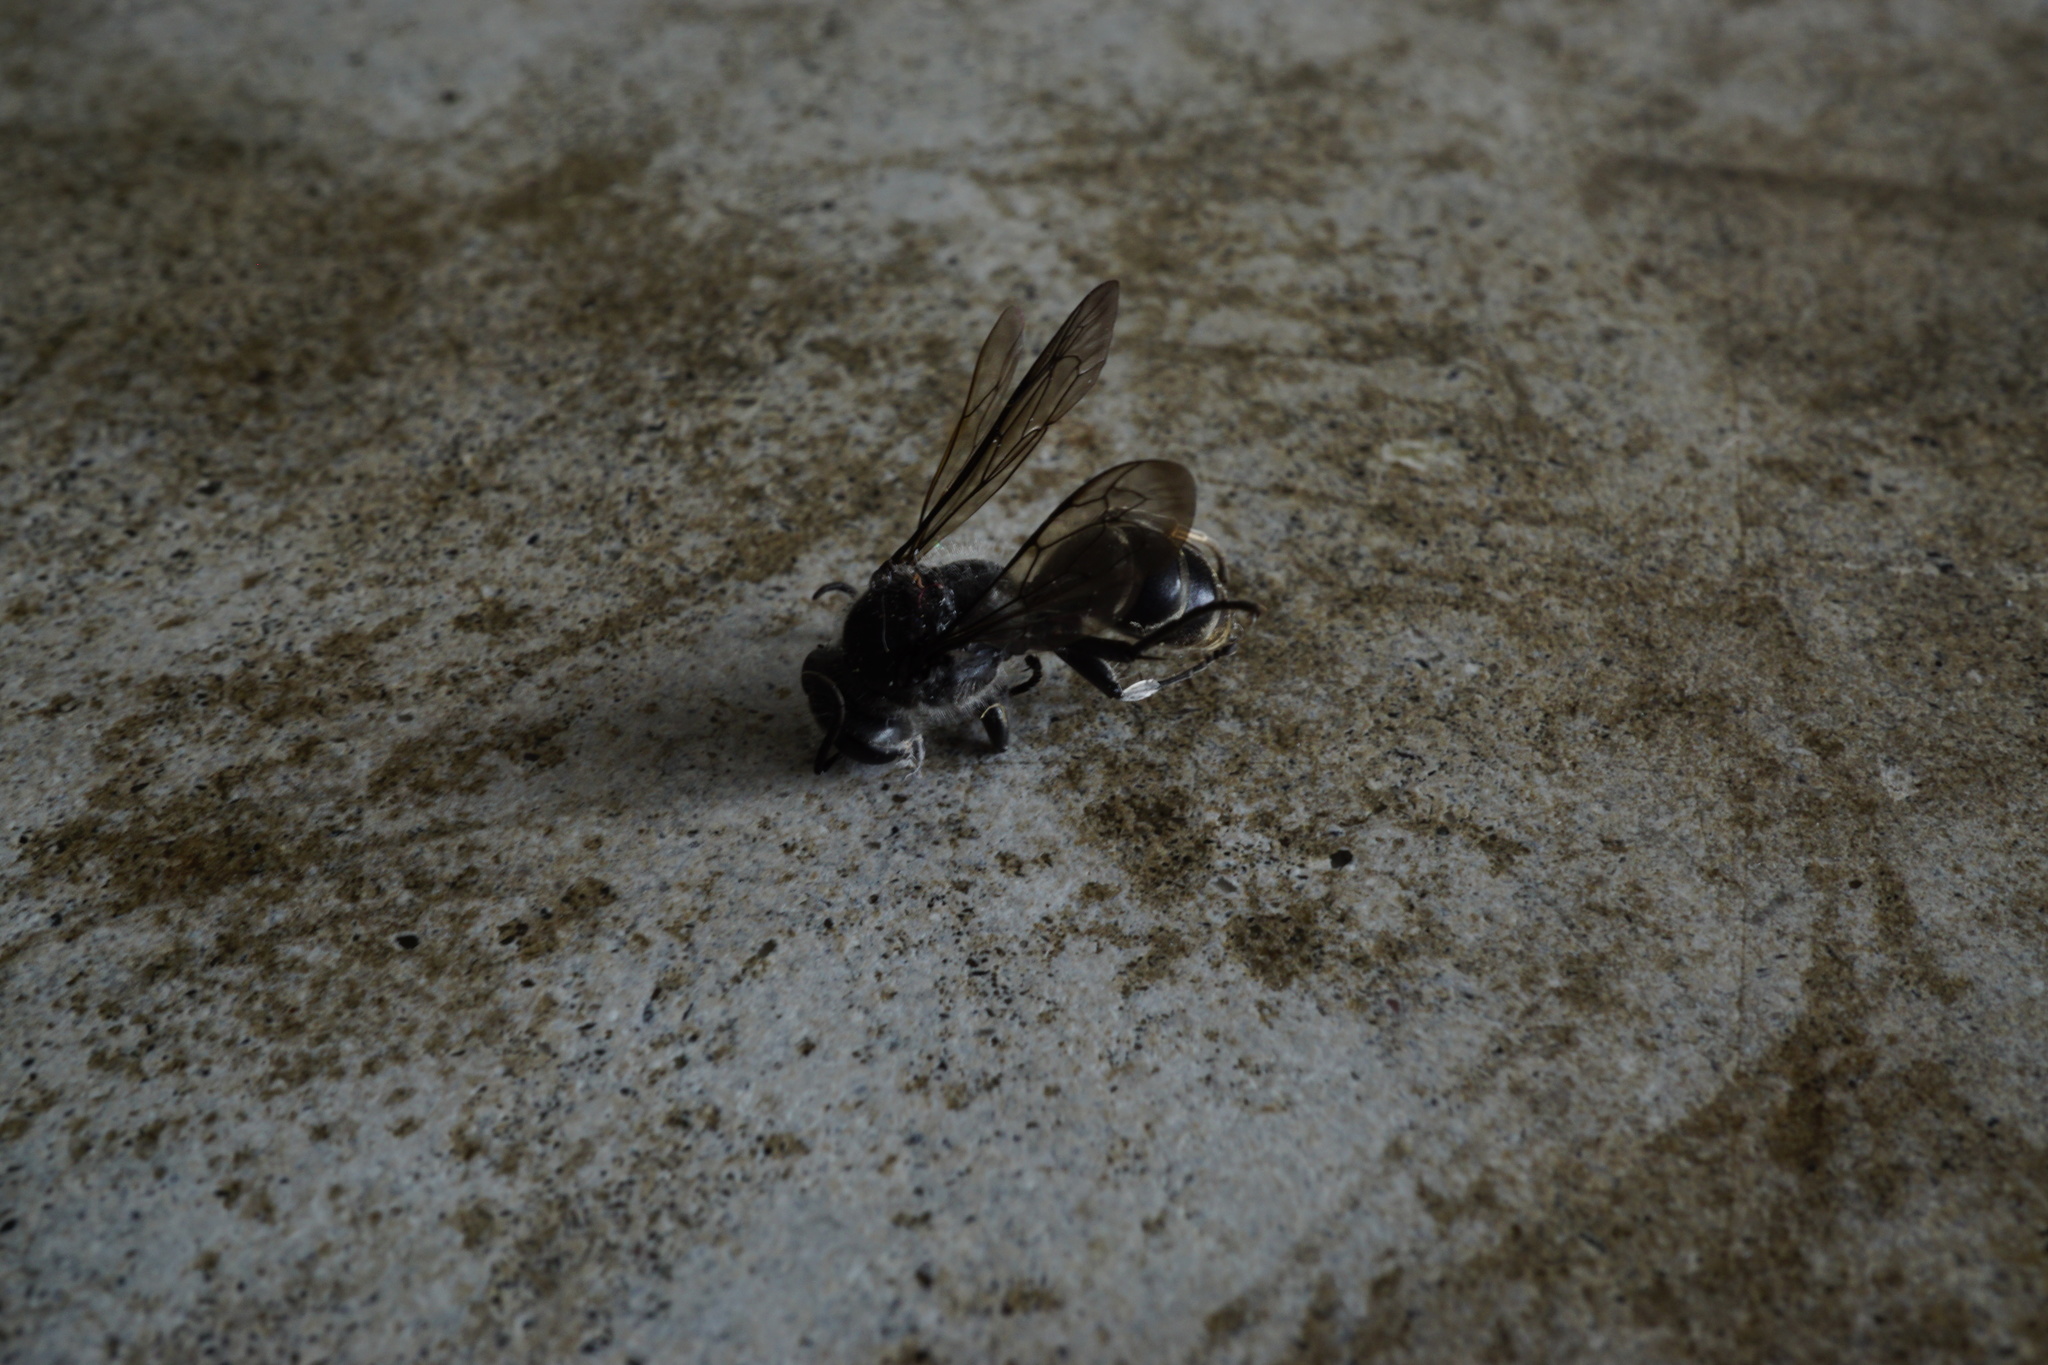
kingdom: Animalia
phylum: Arthropoda
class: Insecta
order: Hymenoptera
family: Crabronidae
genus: Pison
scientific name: Pison spinolae
